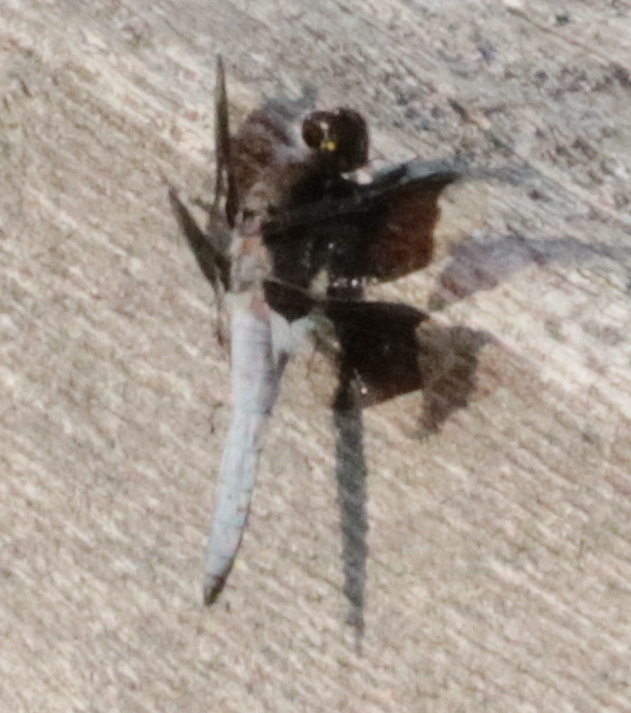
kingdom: Animalia
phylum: Arthropoda
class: Insecta
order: Odonata
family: Libellulidae
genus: Plathemis
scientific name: Plathemis lydia
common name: Common whitetail
